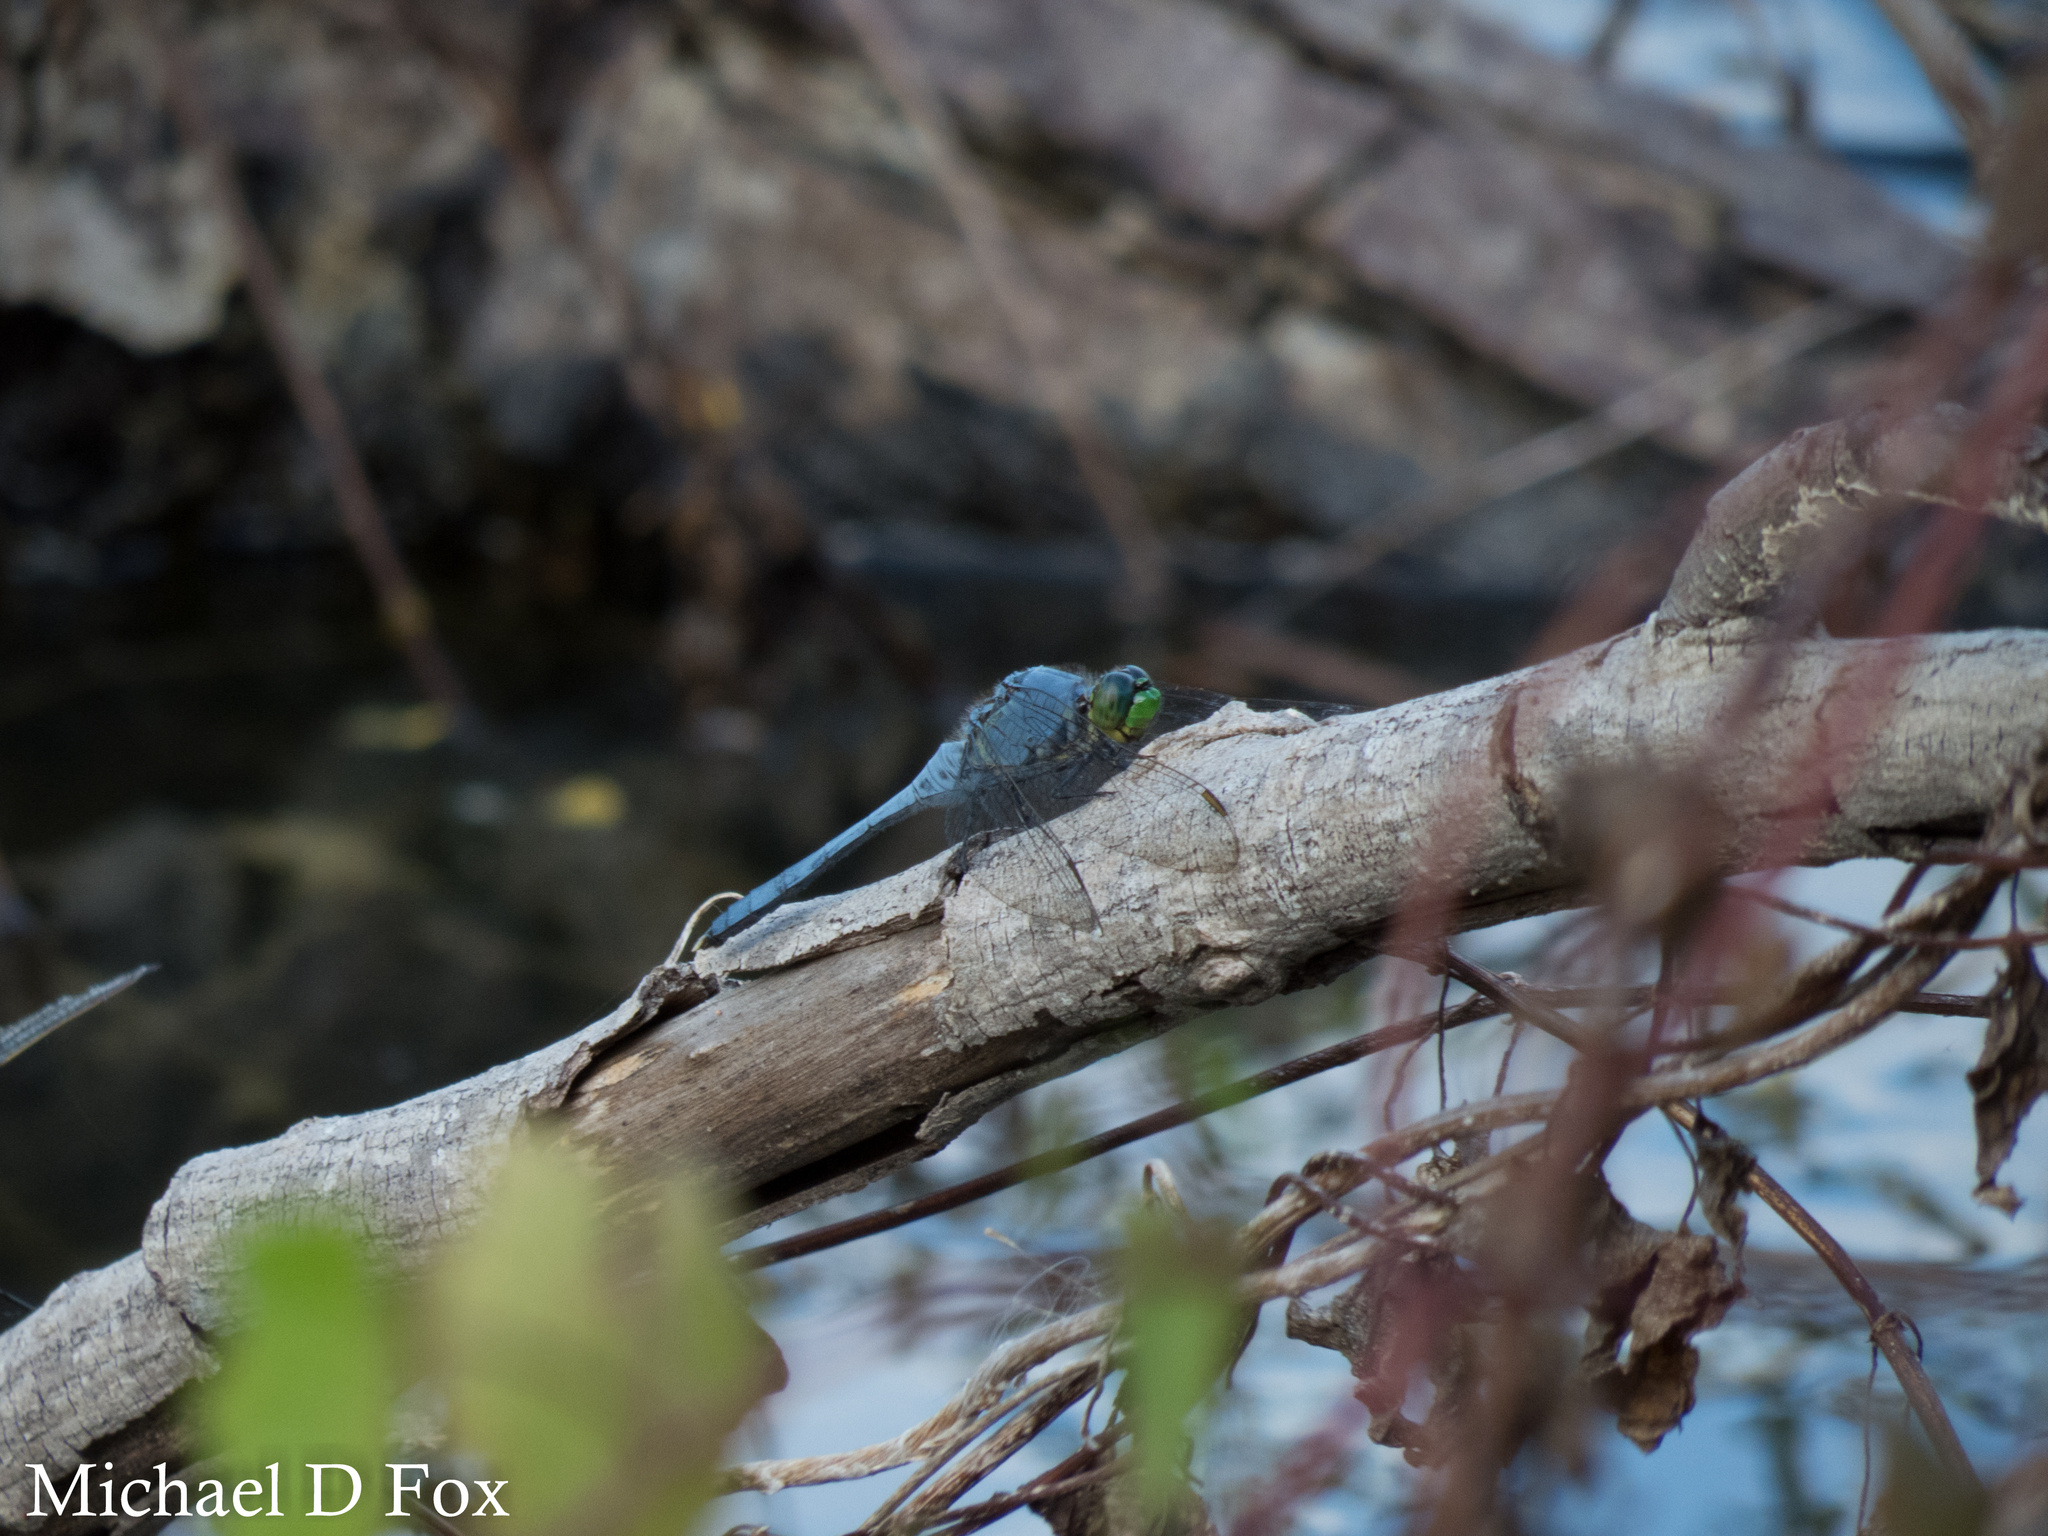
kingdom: Animalia
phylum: Arthropoda
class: Insecta
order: Odonata
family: Libellulidae
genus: Erythemis
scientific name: Erythemis simplicicollis
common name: Eastern pondhawk
